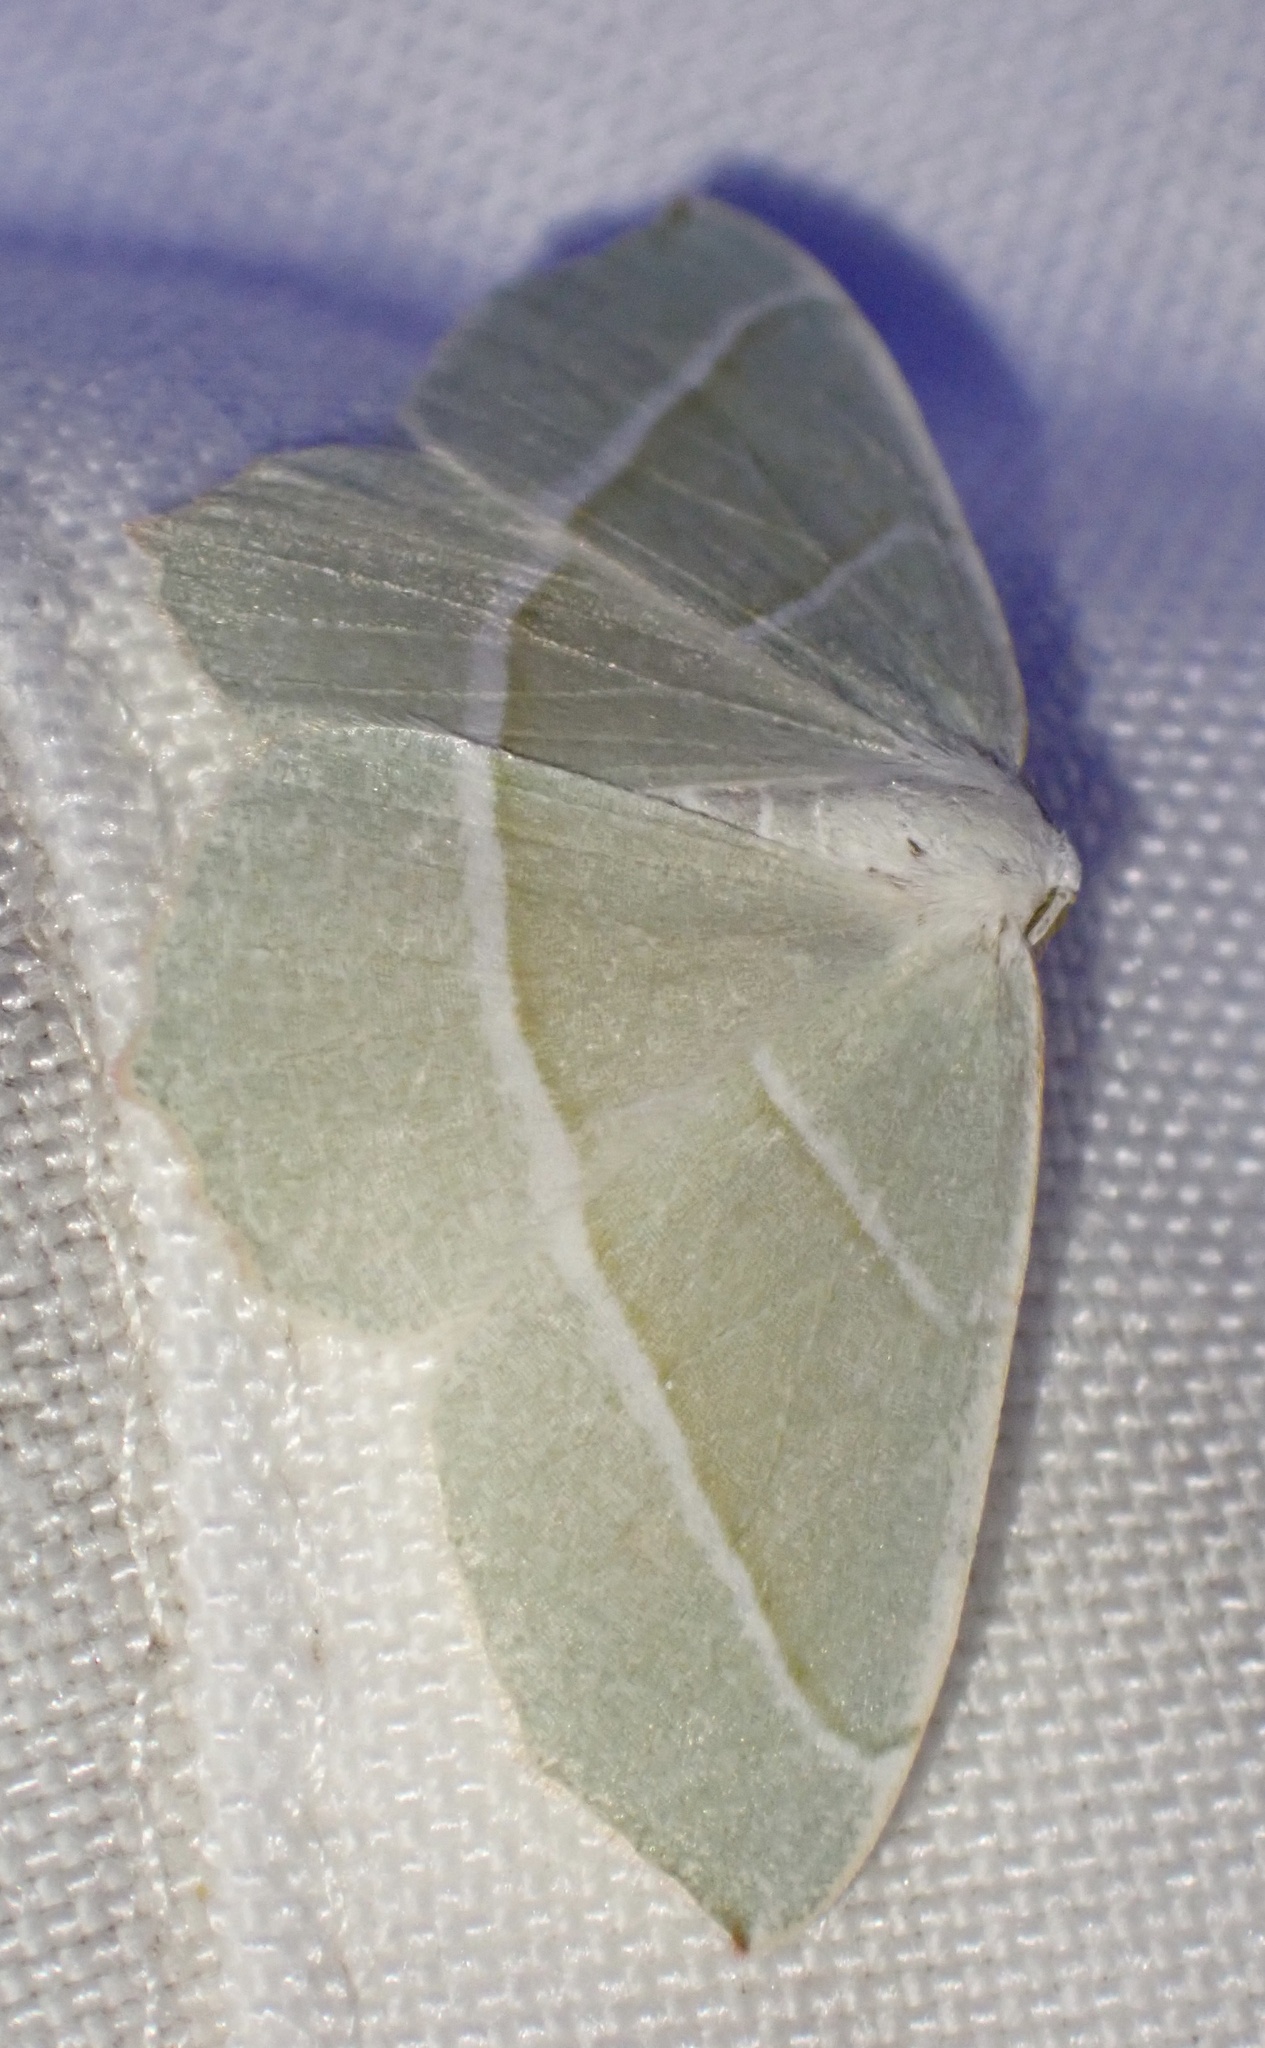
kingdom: Animalia
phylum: Arthropoda
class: Insecta
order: Lepidoptera
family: Geometridae
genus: Campaea
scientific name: Campaea margaritaria
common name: Light emerald
